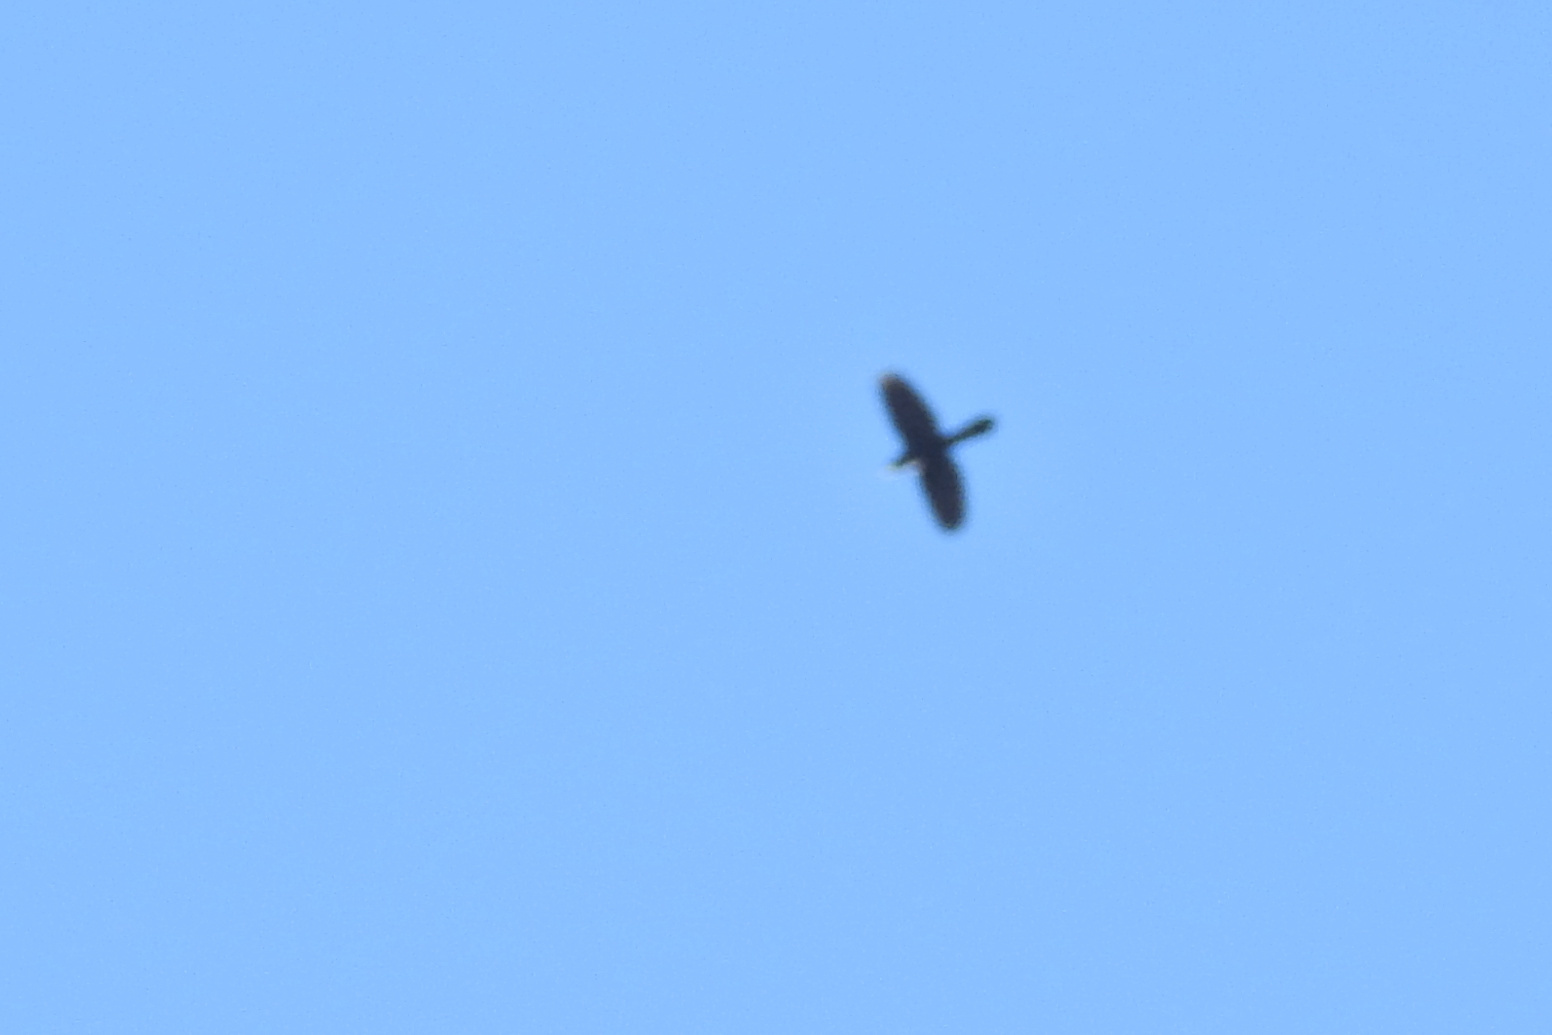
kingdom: Animalia
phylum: Chordata
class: Aves
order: Passeriformes
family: Icteridae
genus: Quiscalus
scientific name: Quiscalus quiscula
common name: Common grackle
